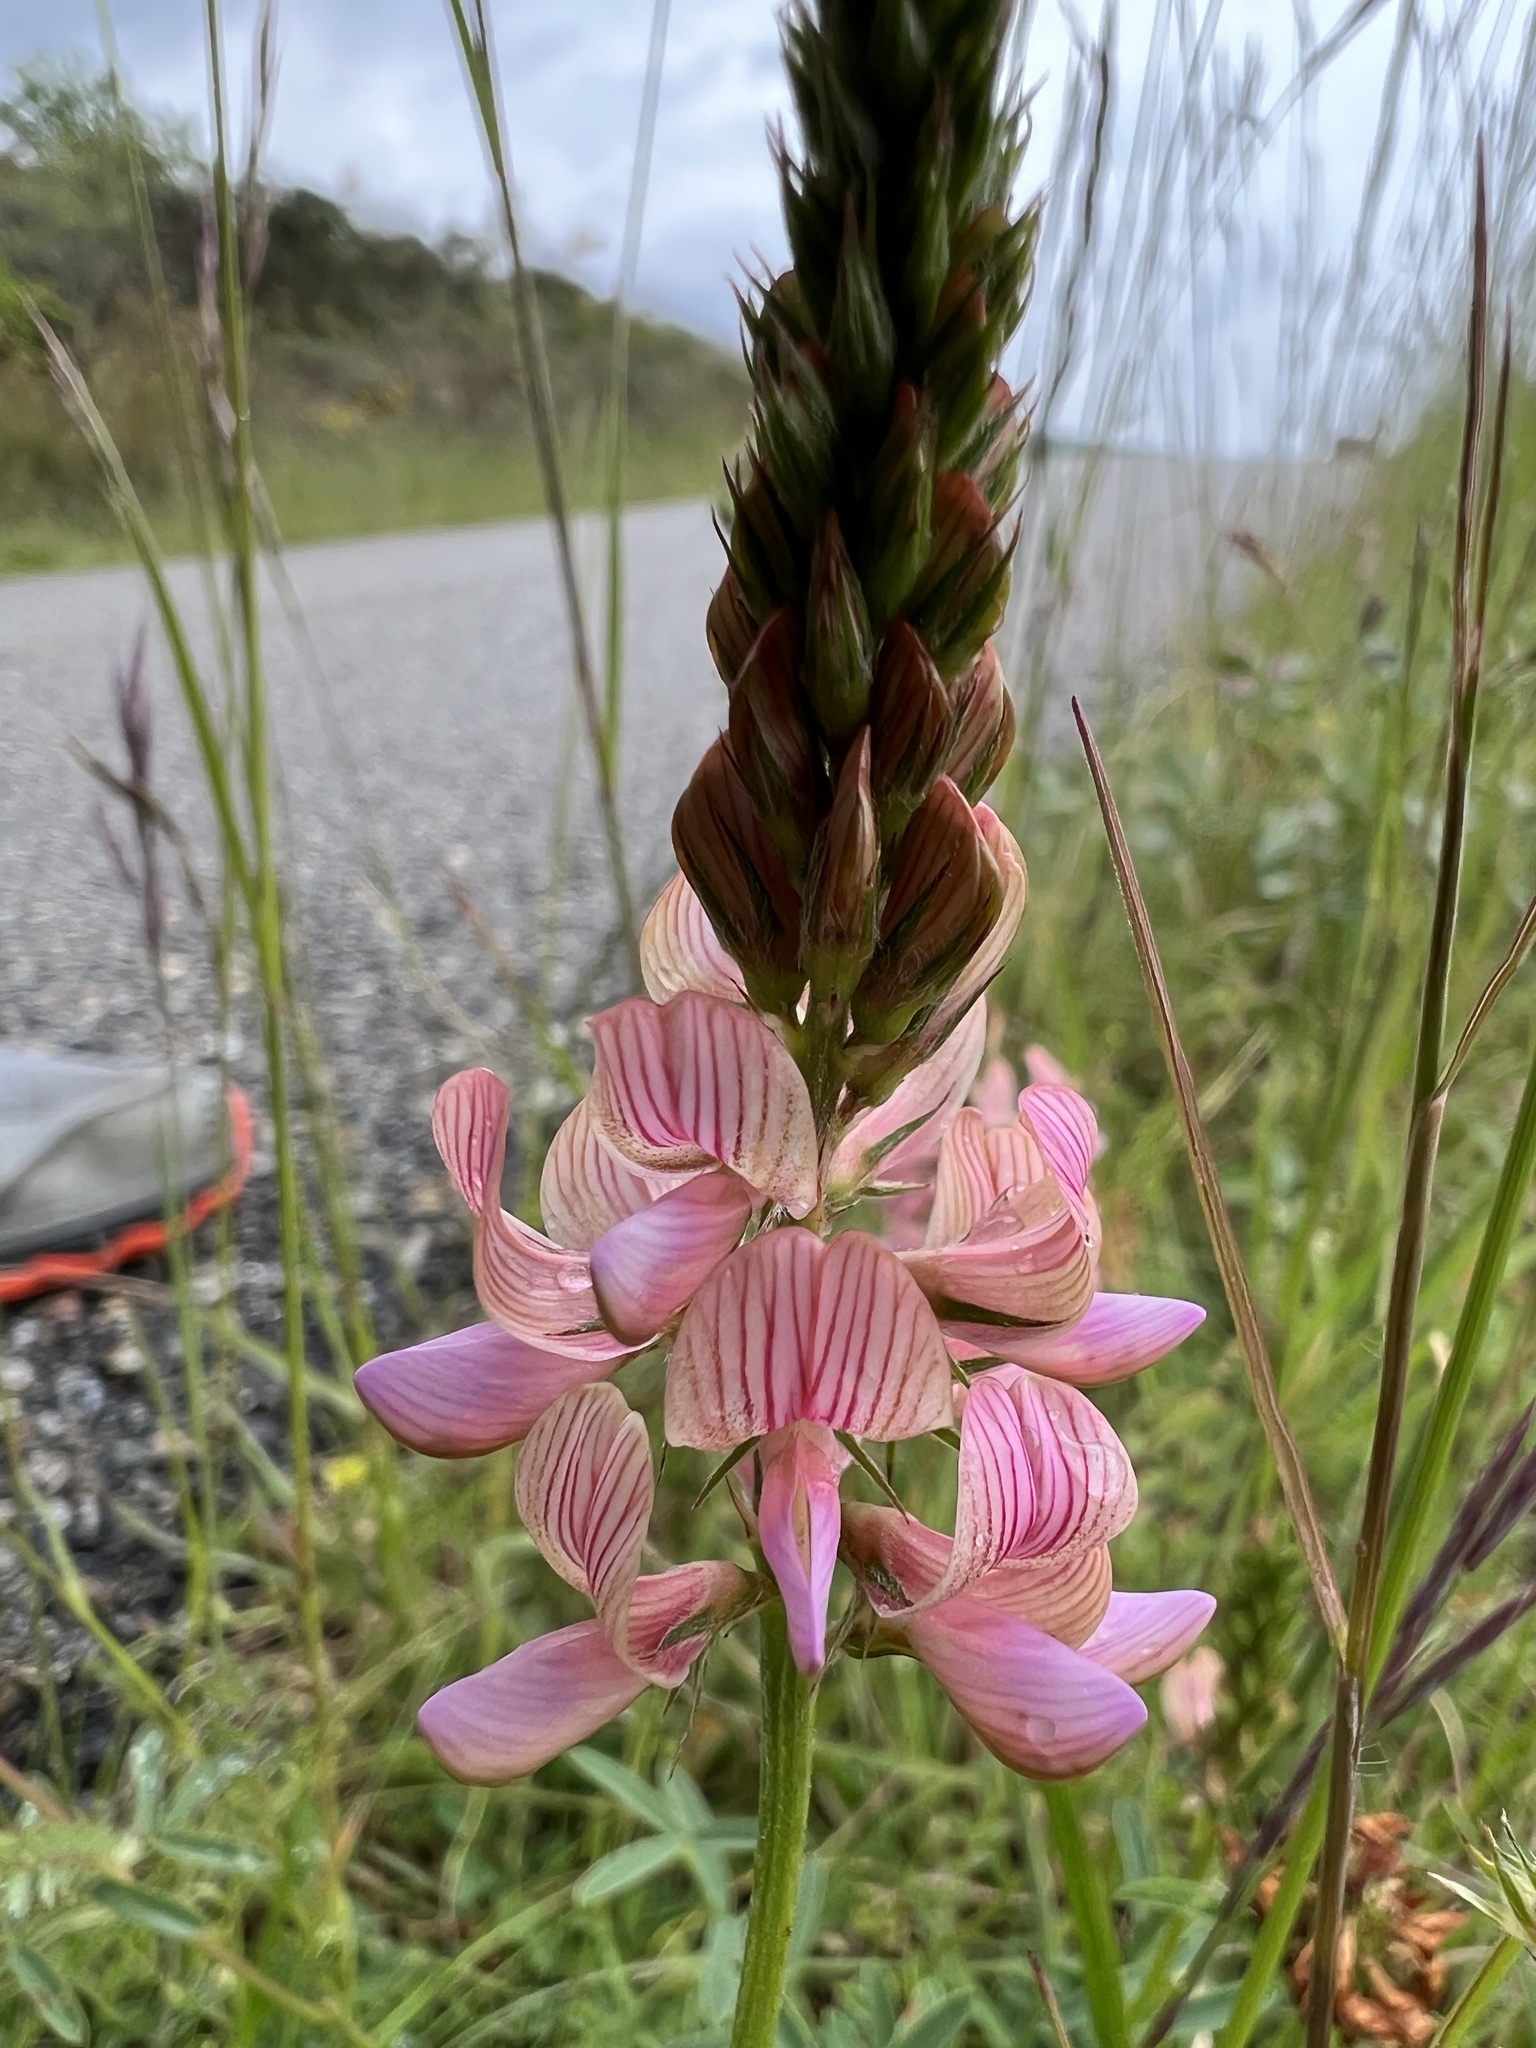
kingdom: Plantae
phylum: Tracheophyta
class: Magnoliopsida
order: Fabales
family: Fabaceae
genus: Onobrychis
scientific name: Onobrychis viciifolia
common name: Sainfoin
